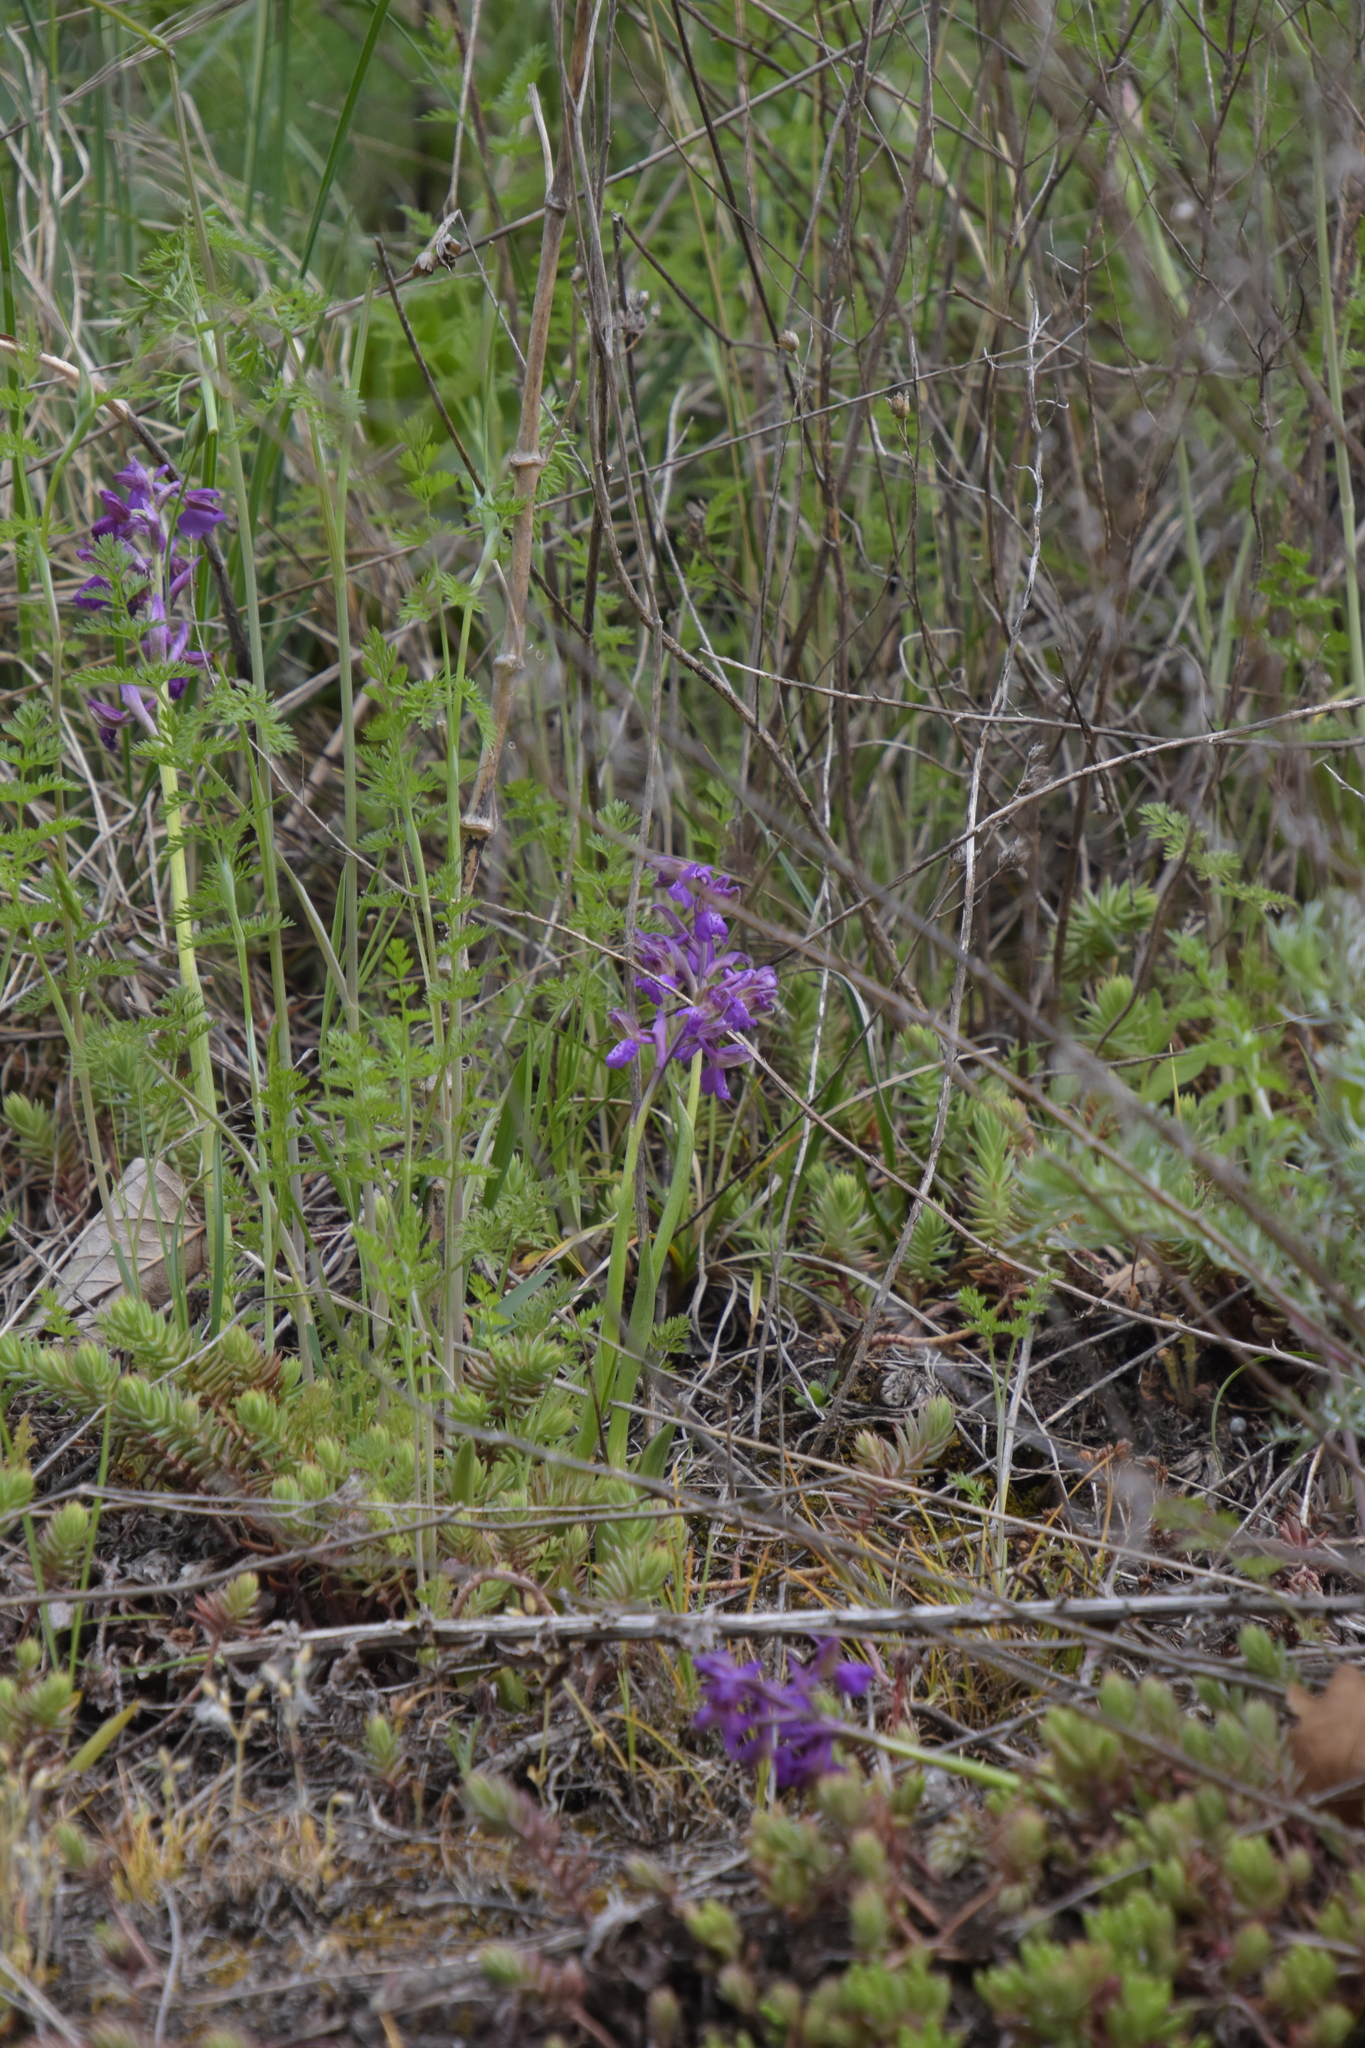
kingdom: Plantae
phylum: Tracheophyta
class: Liliopsida
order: Asparagales
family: Orchidaceae
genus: Anacamptis
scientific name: Anacamptis morio
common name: Green-winged orchid
